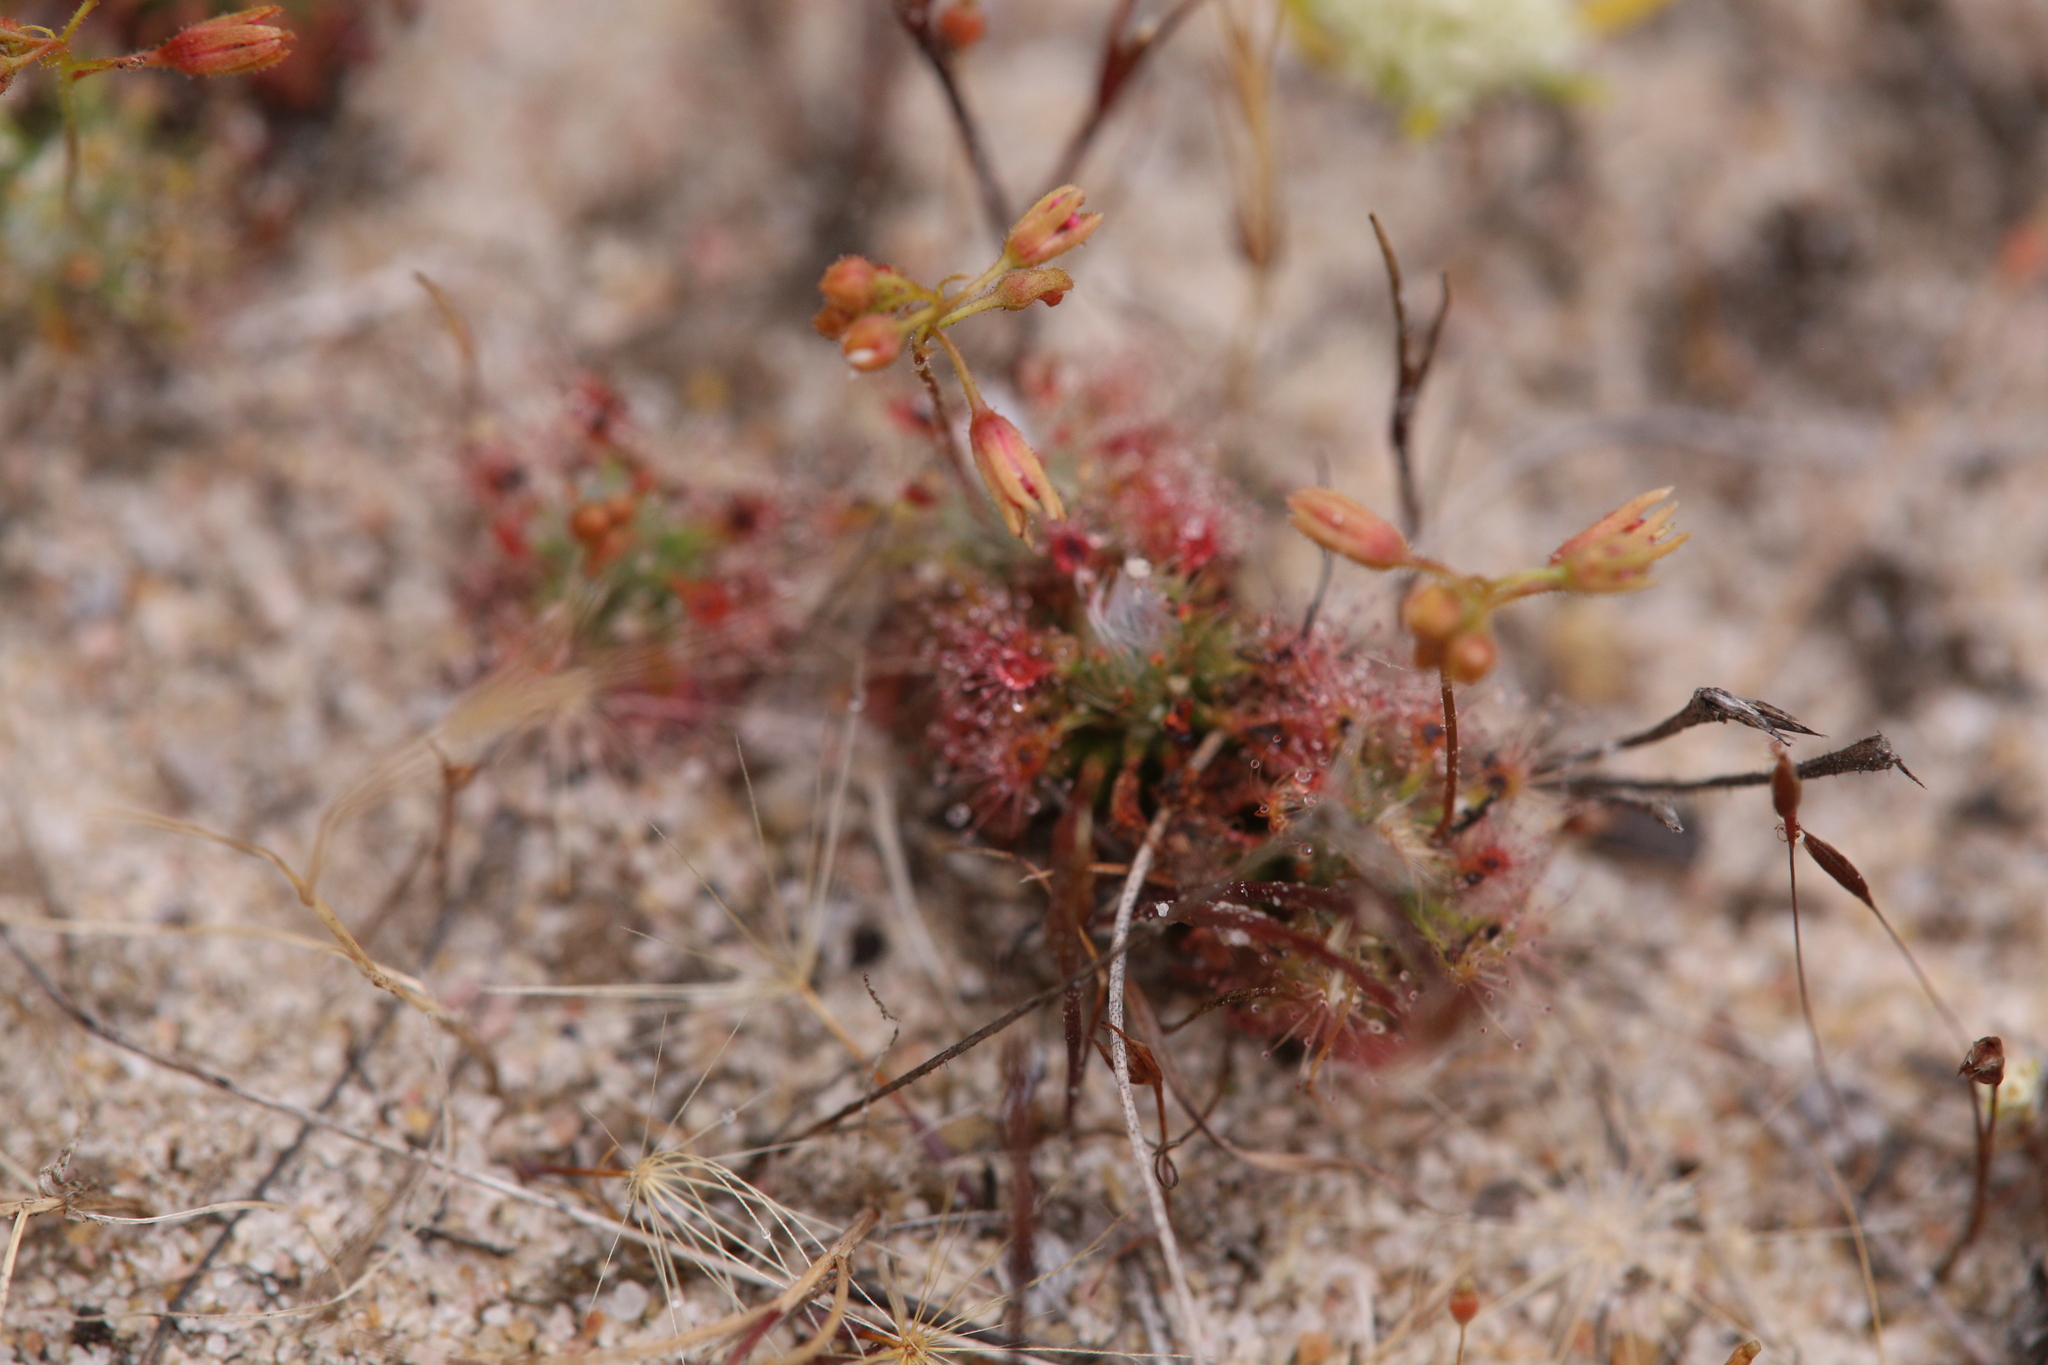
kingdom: Plantae
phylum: Tracheophyta
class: Magnoliopsida
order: Caryophyllales
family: Droseraceae
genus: Drosera
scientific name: Drosera nitidula
